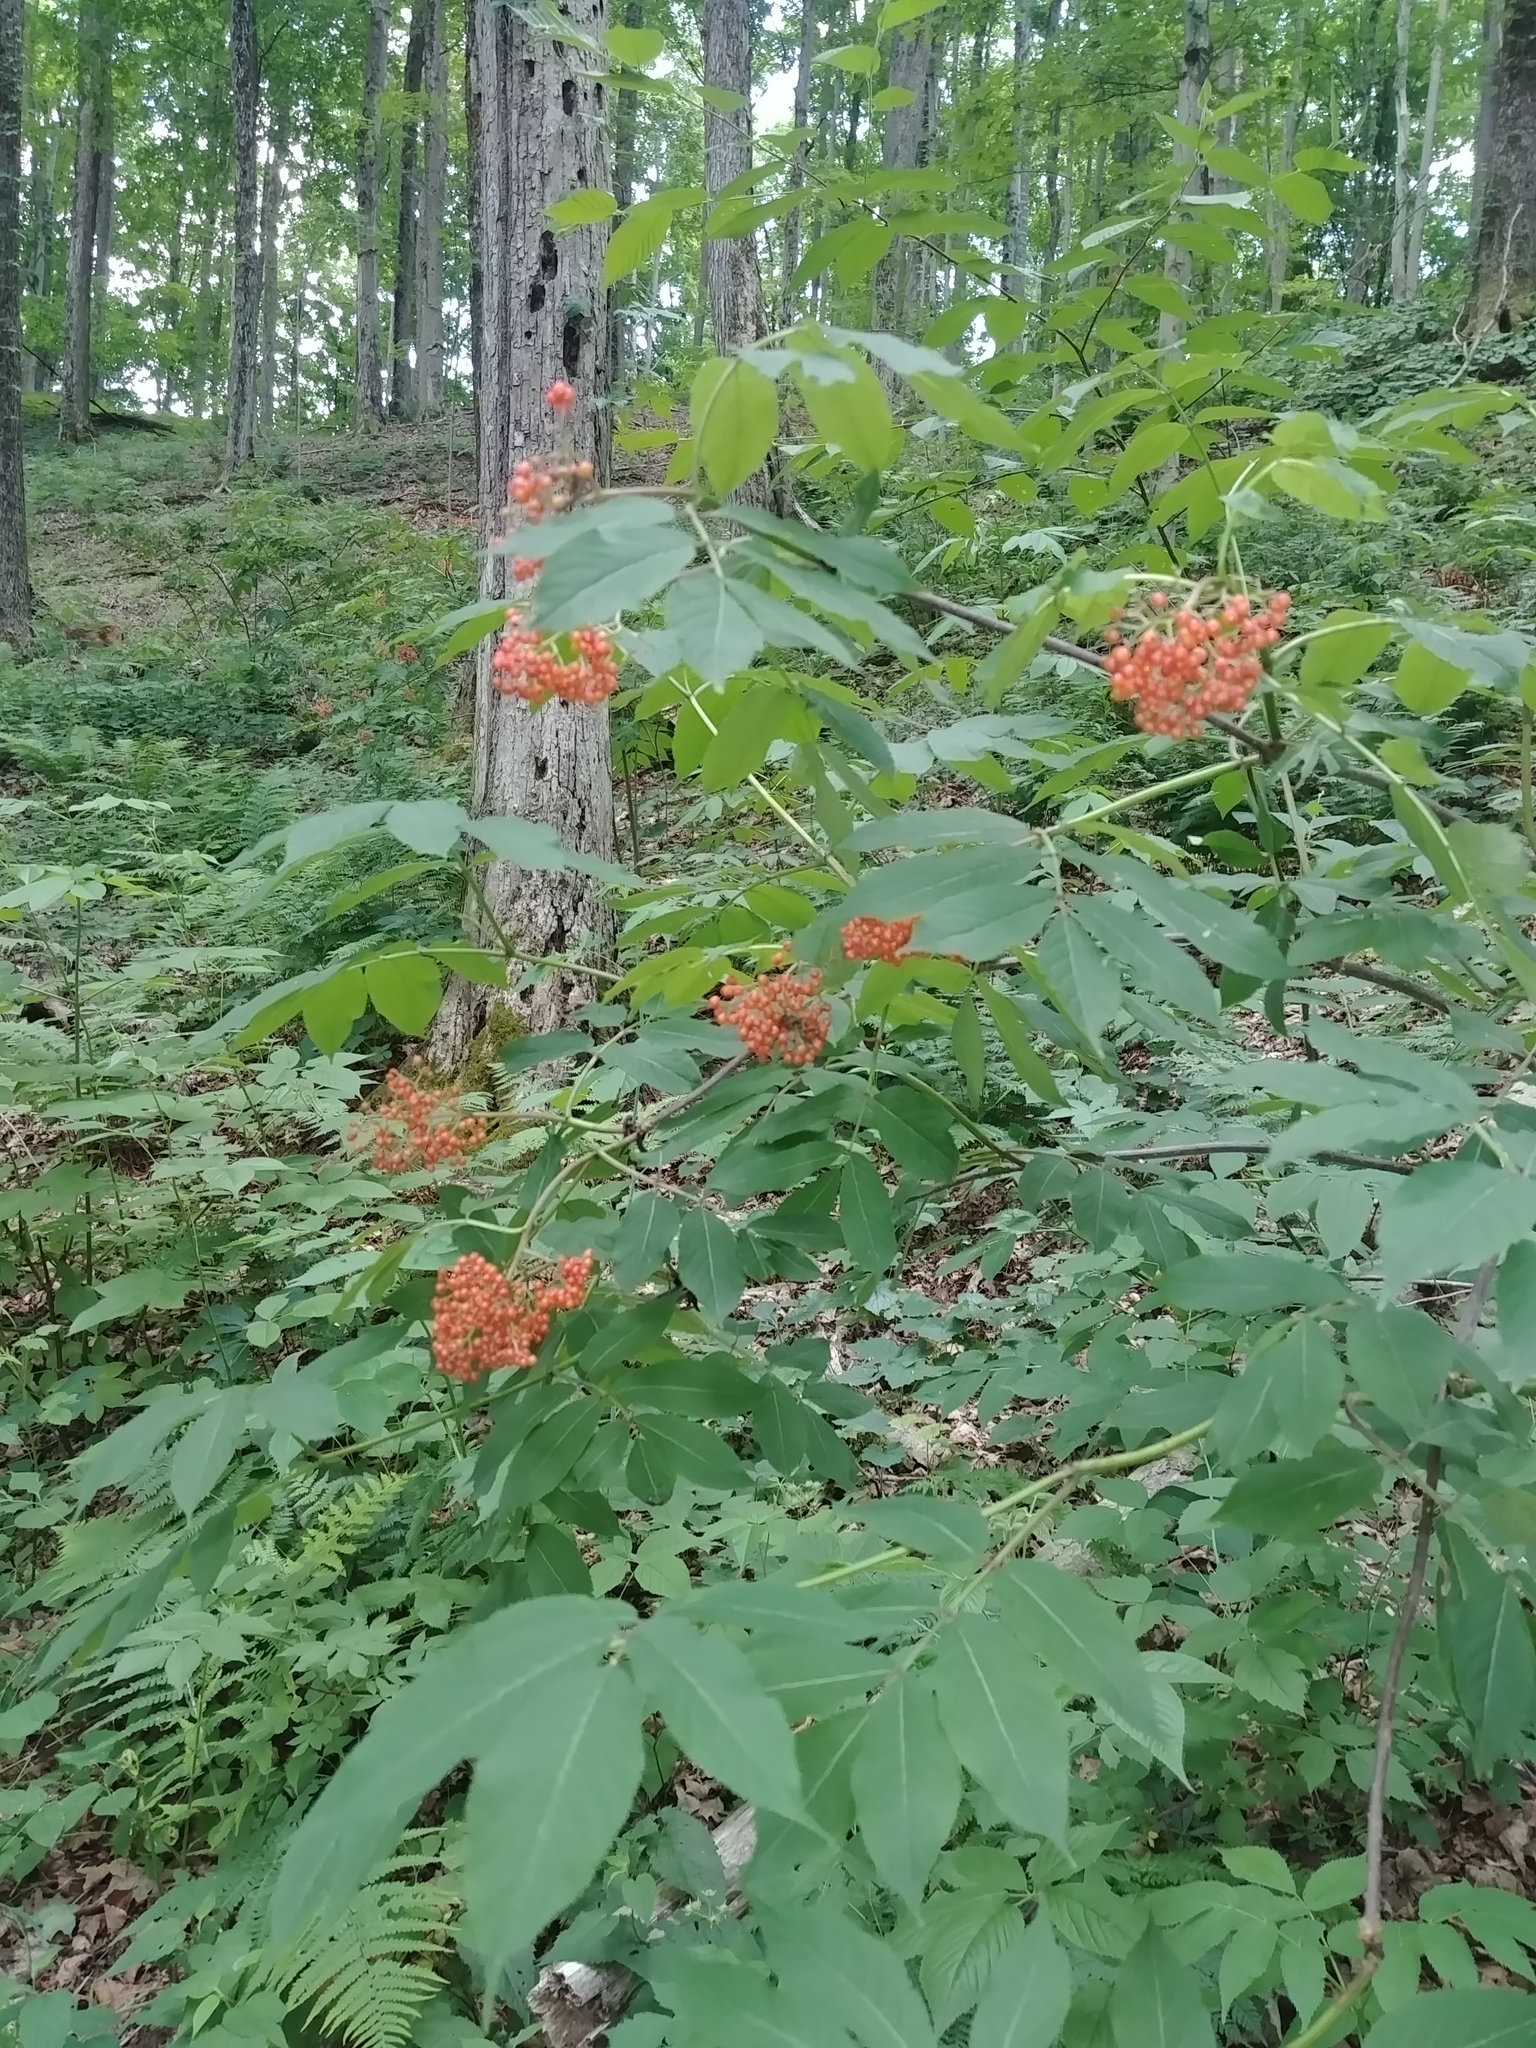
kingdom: Plantae
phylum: Tracheophyta
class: Magnoliopsida
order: Dipsacales
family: Viburnaceae
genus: Sambucus
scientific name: Sambucus racemosa
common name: Red-berried elder
